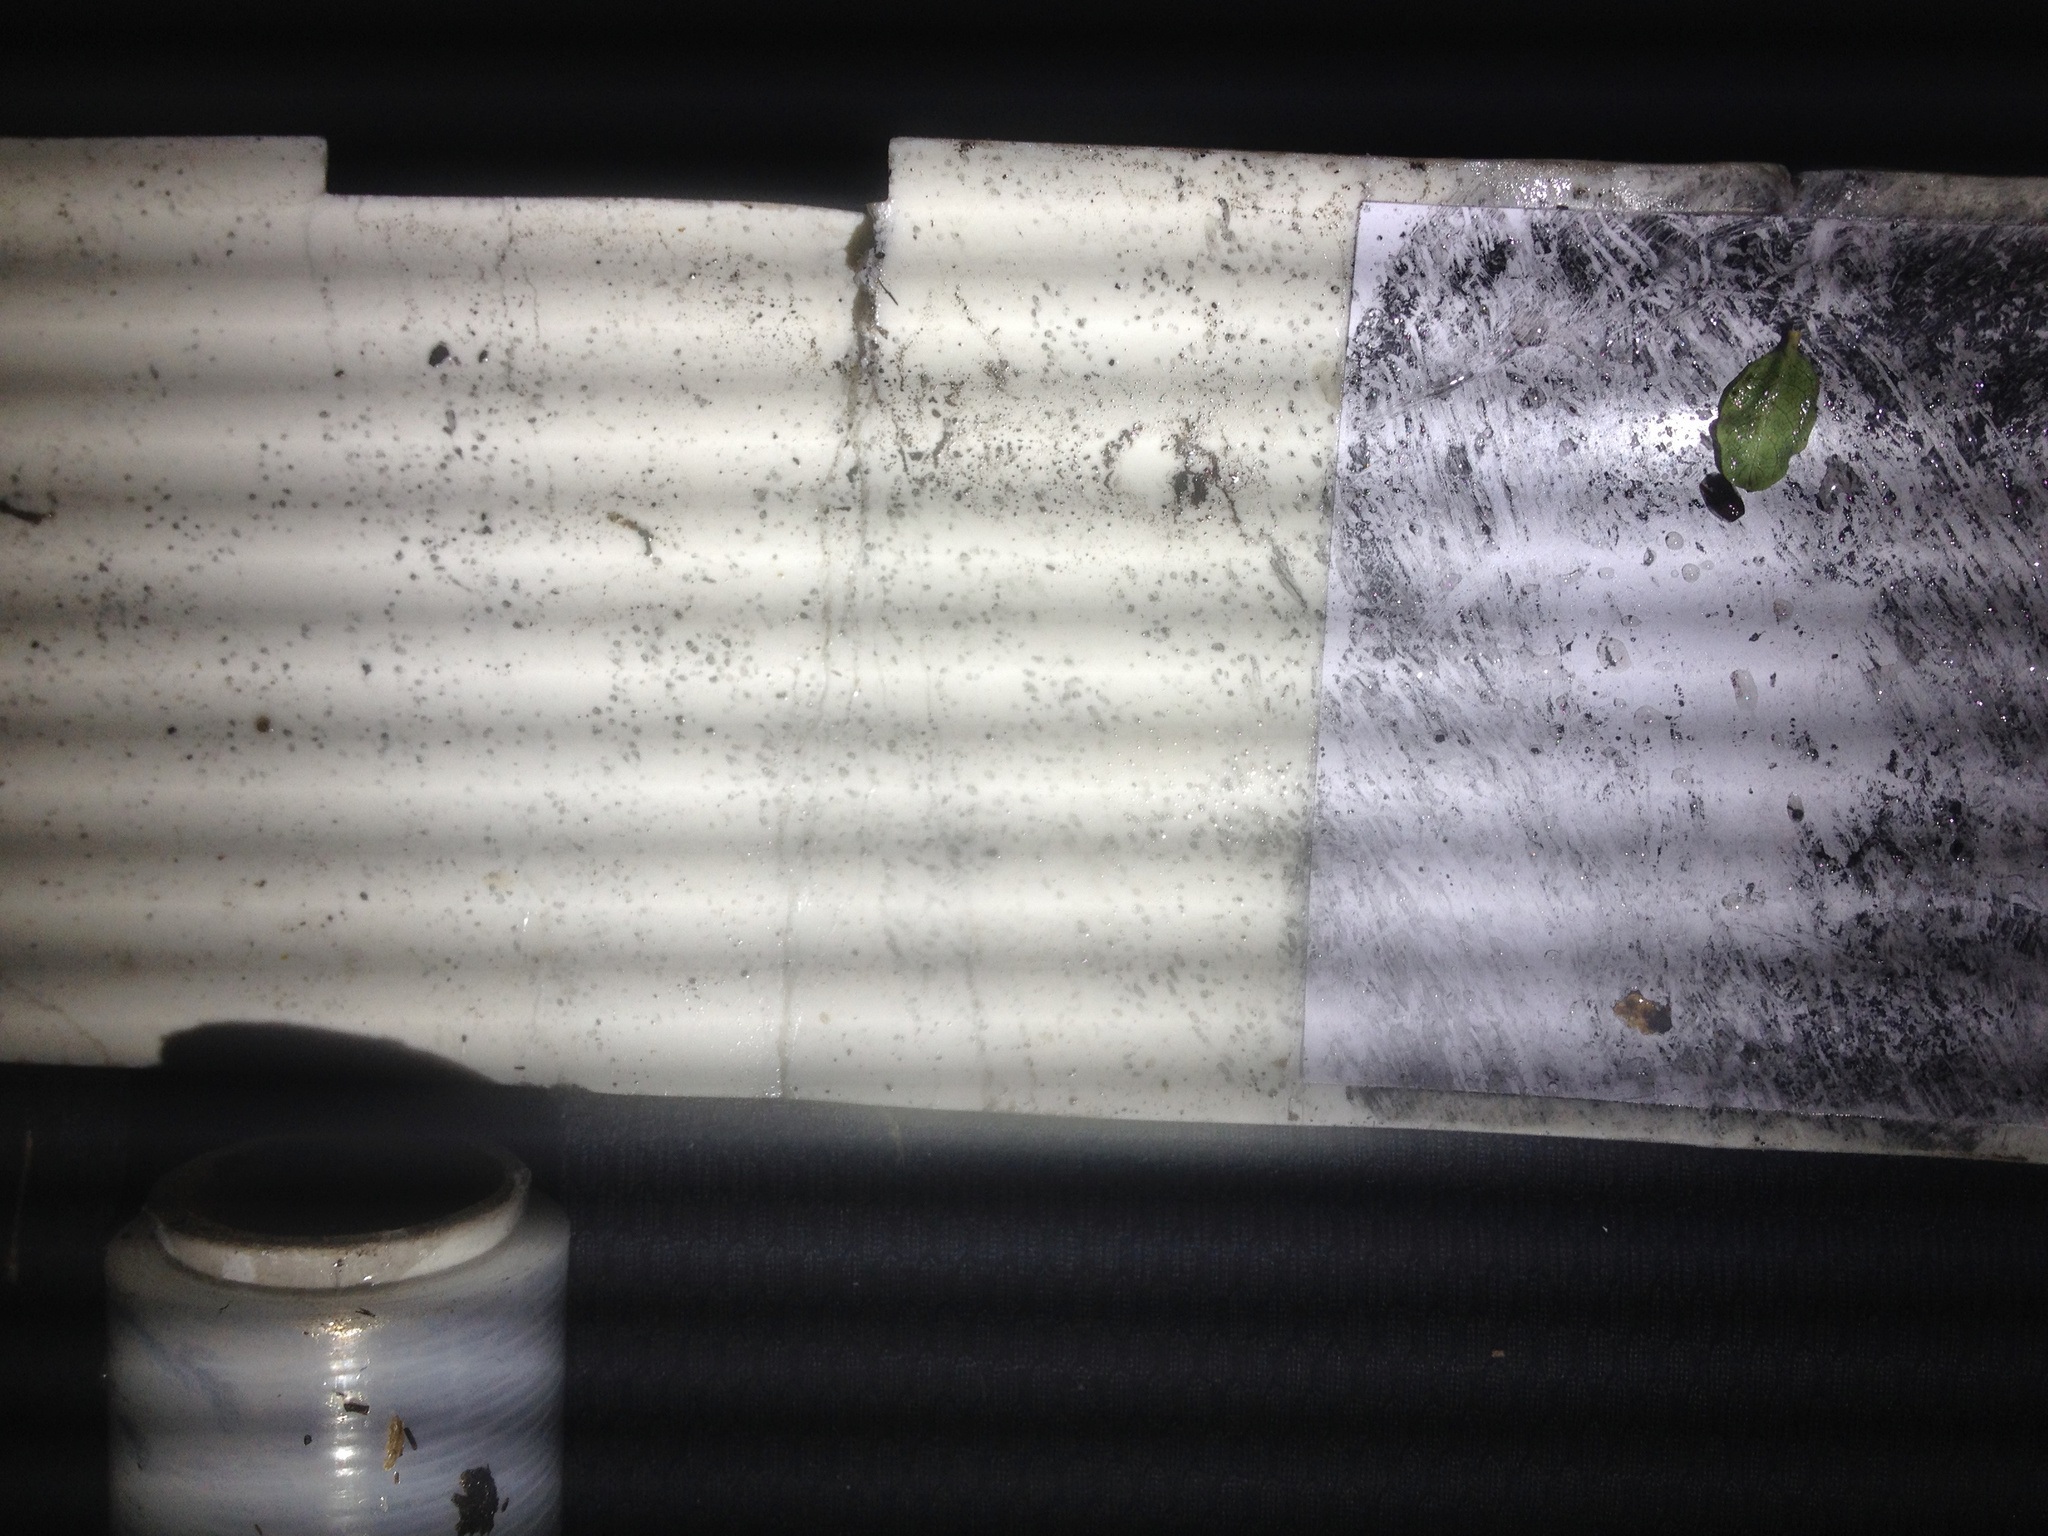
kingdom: Animalia
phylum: Chordata
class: Mammalia
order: Rodentia
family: Muridae
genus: Mus
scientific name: Mus musculus
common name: House mouse
